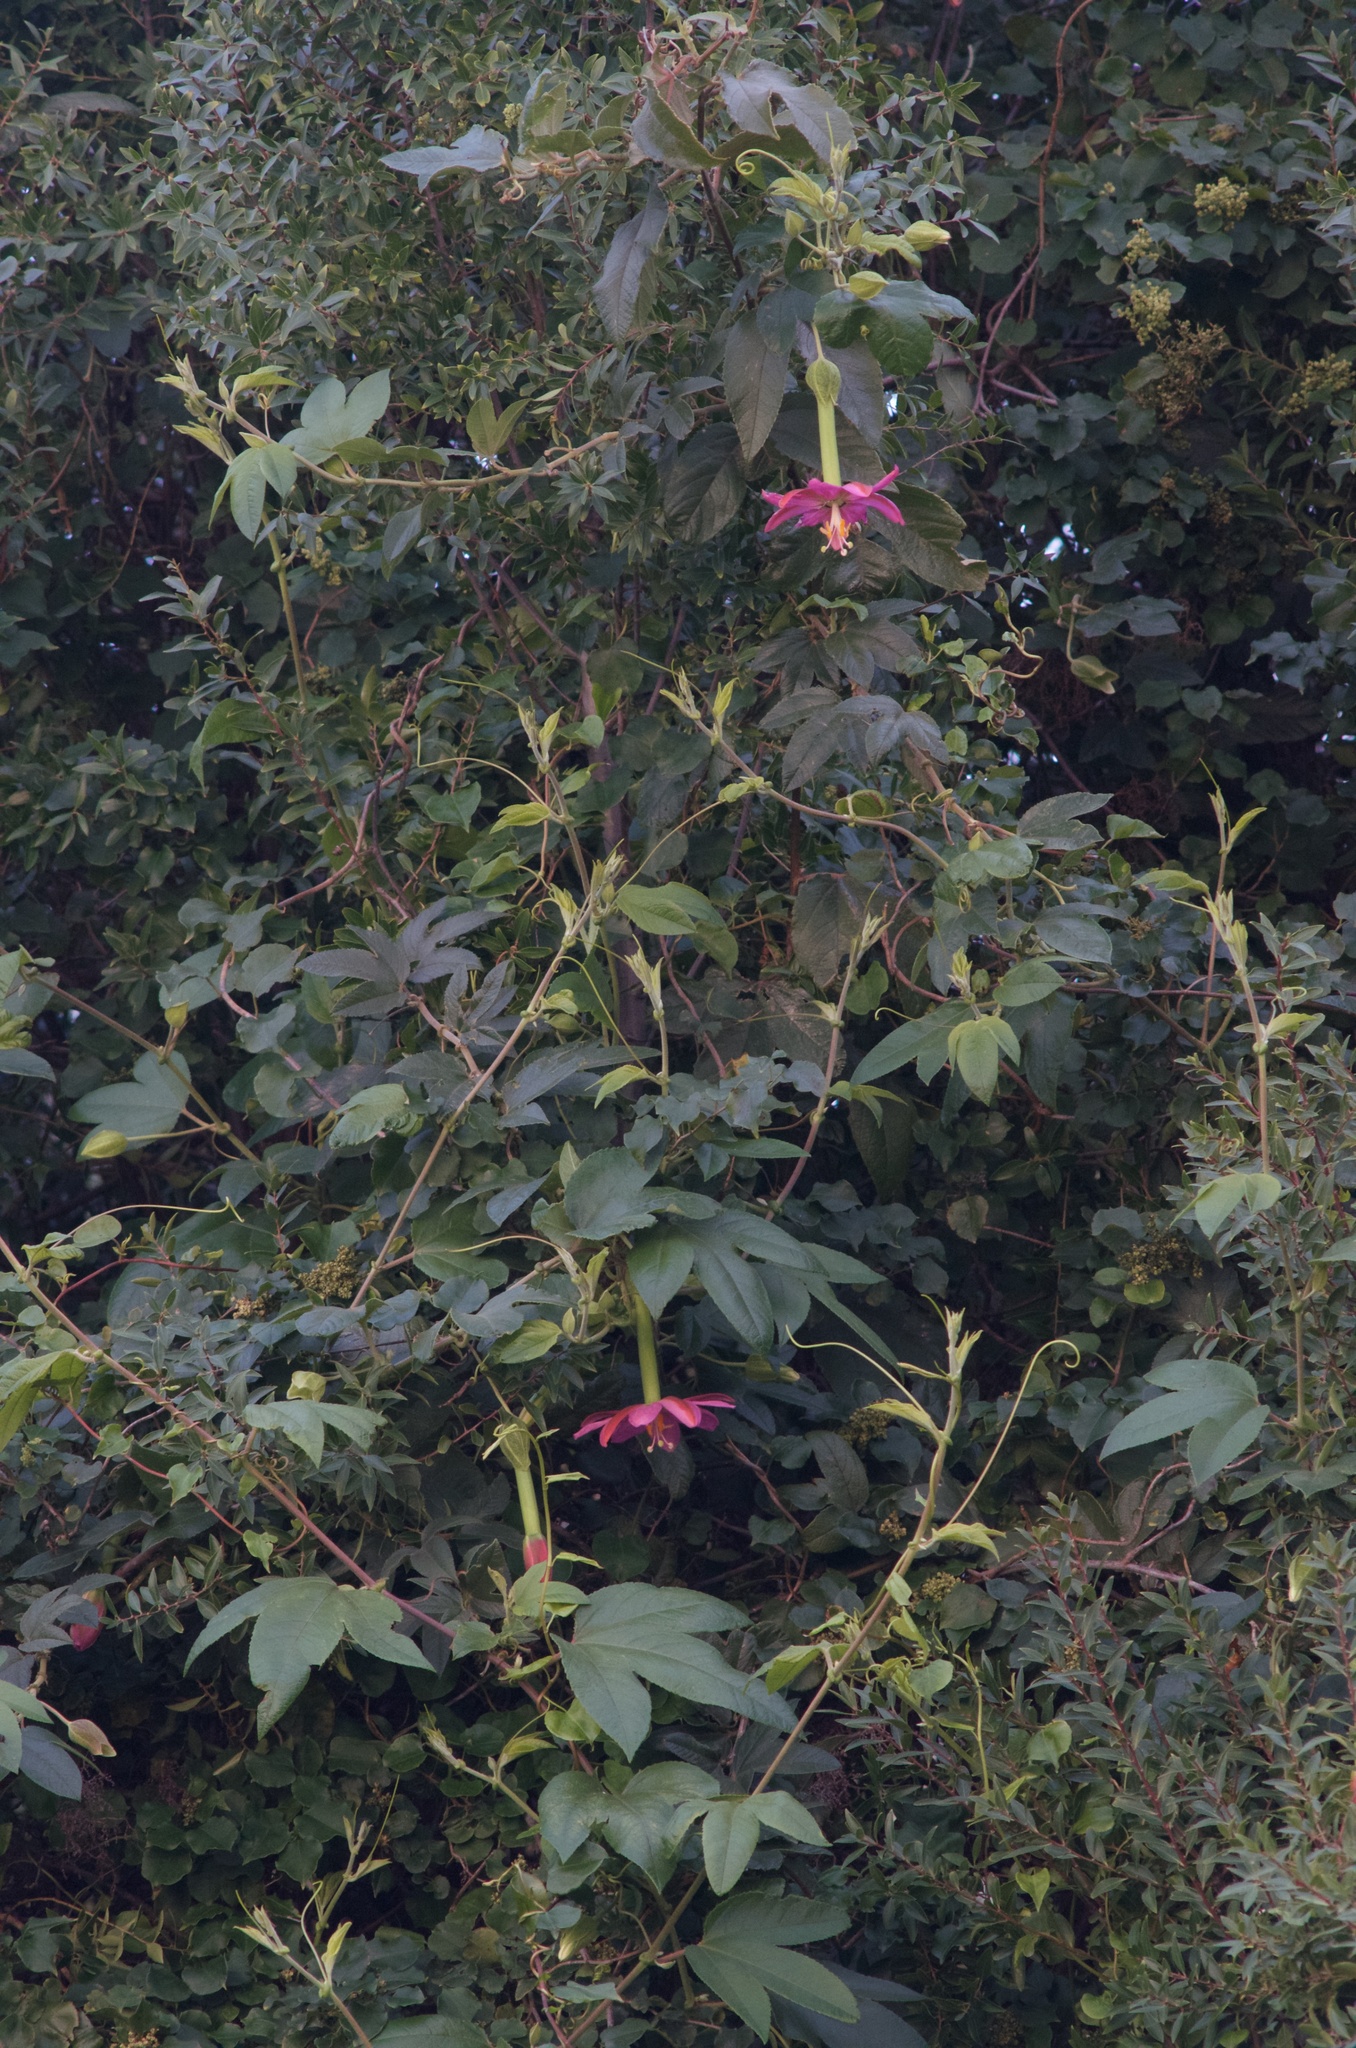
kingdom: Plantae
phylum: Tracheophyta
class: Magnoliopsida
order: Malpighiales
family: Passifloraceae
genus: Passiflora
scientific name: Passiflora tripartita
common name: Banana poka
